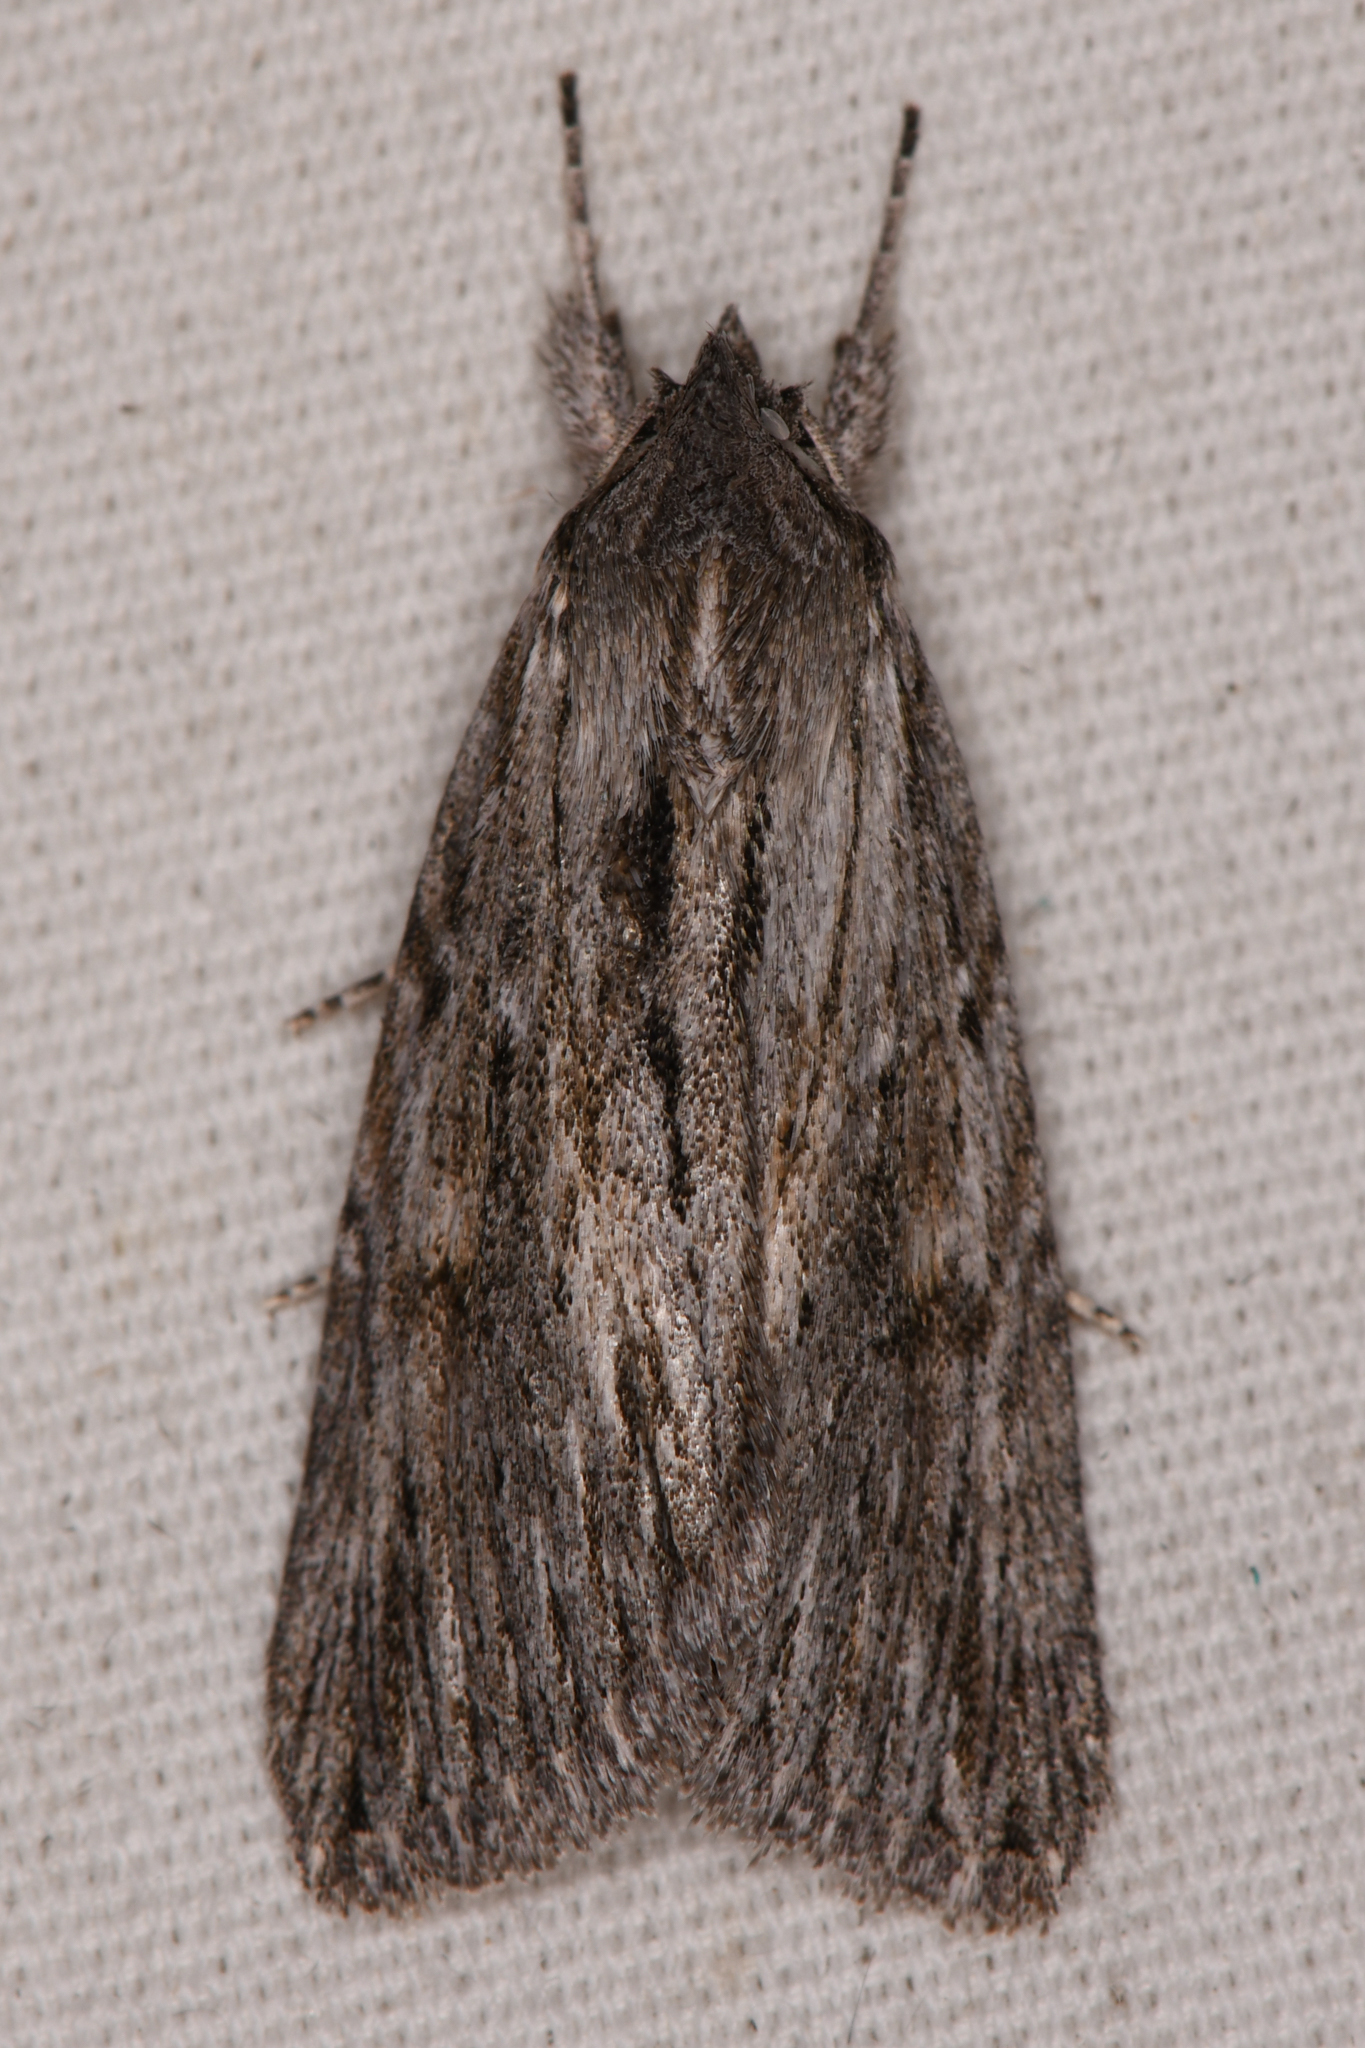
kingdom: Animalia
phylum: Arthropoda
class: Insecta
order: Lepidoptera
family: Noctuidae
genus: Catabena
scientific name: Catabena sagittata
